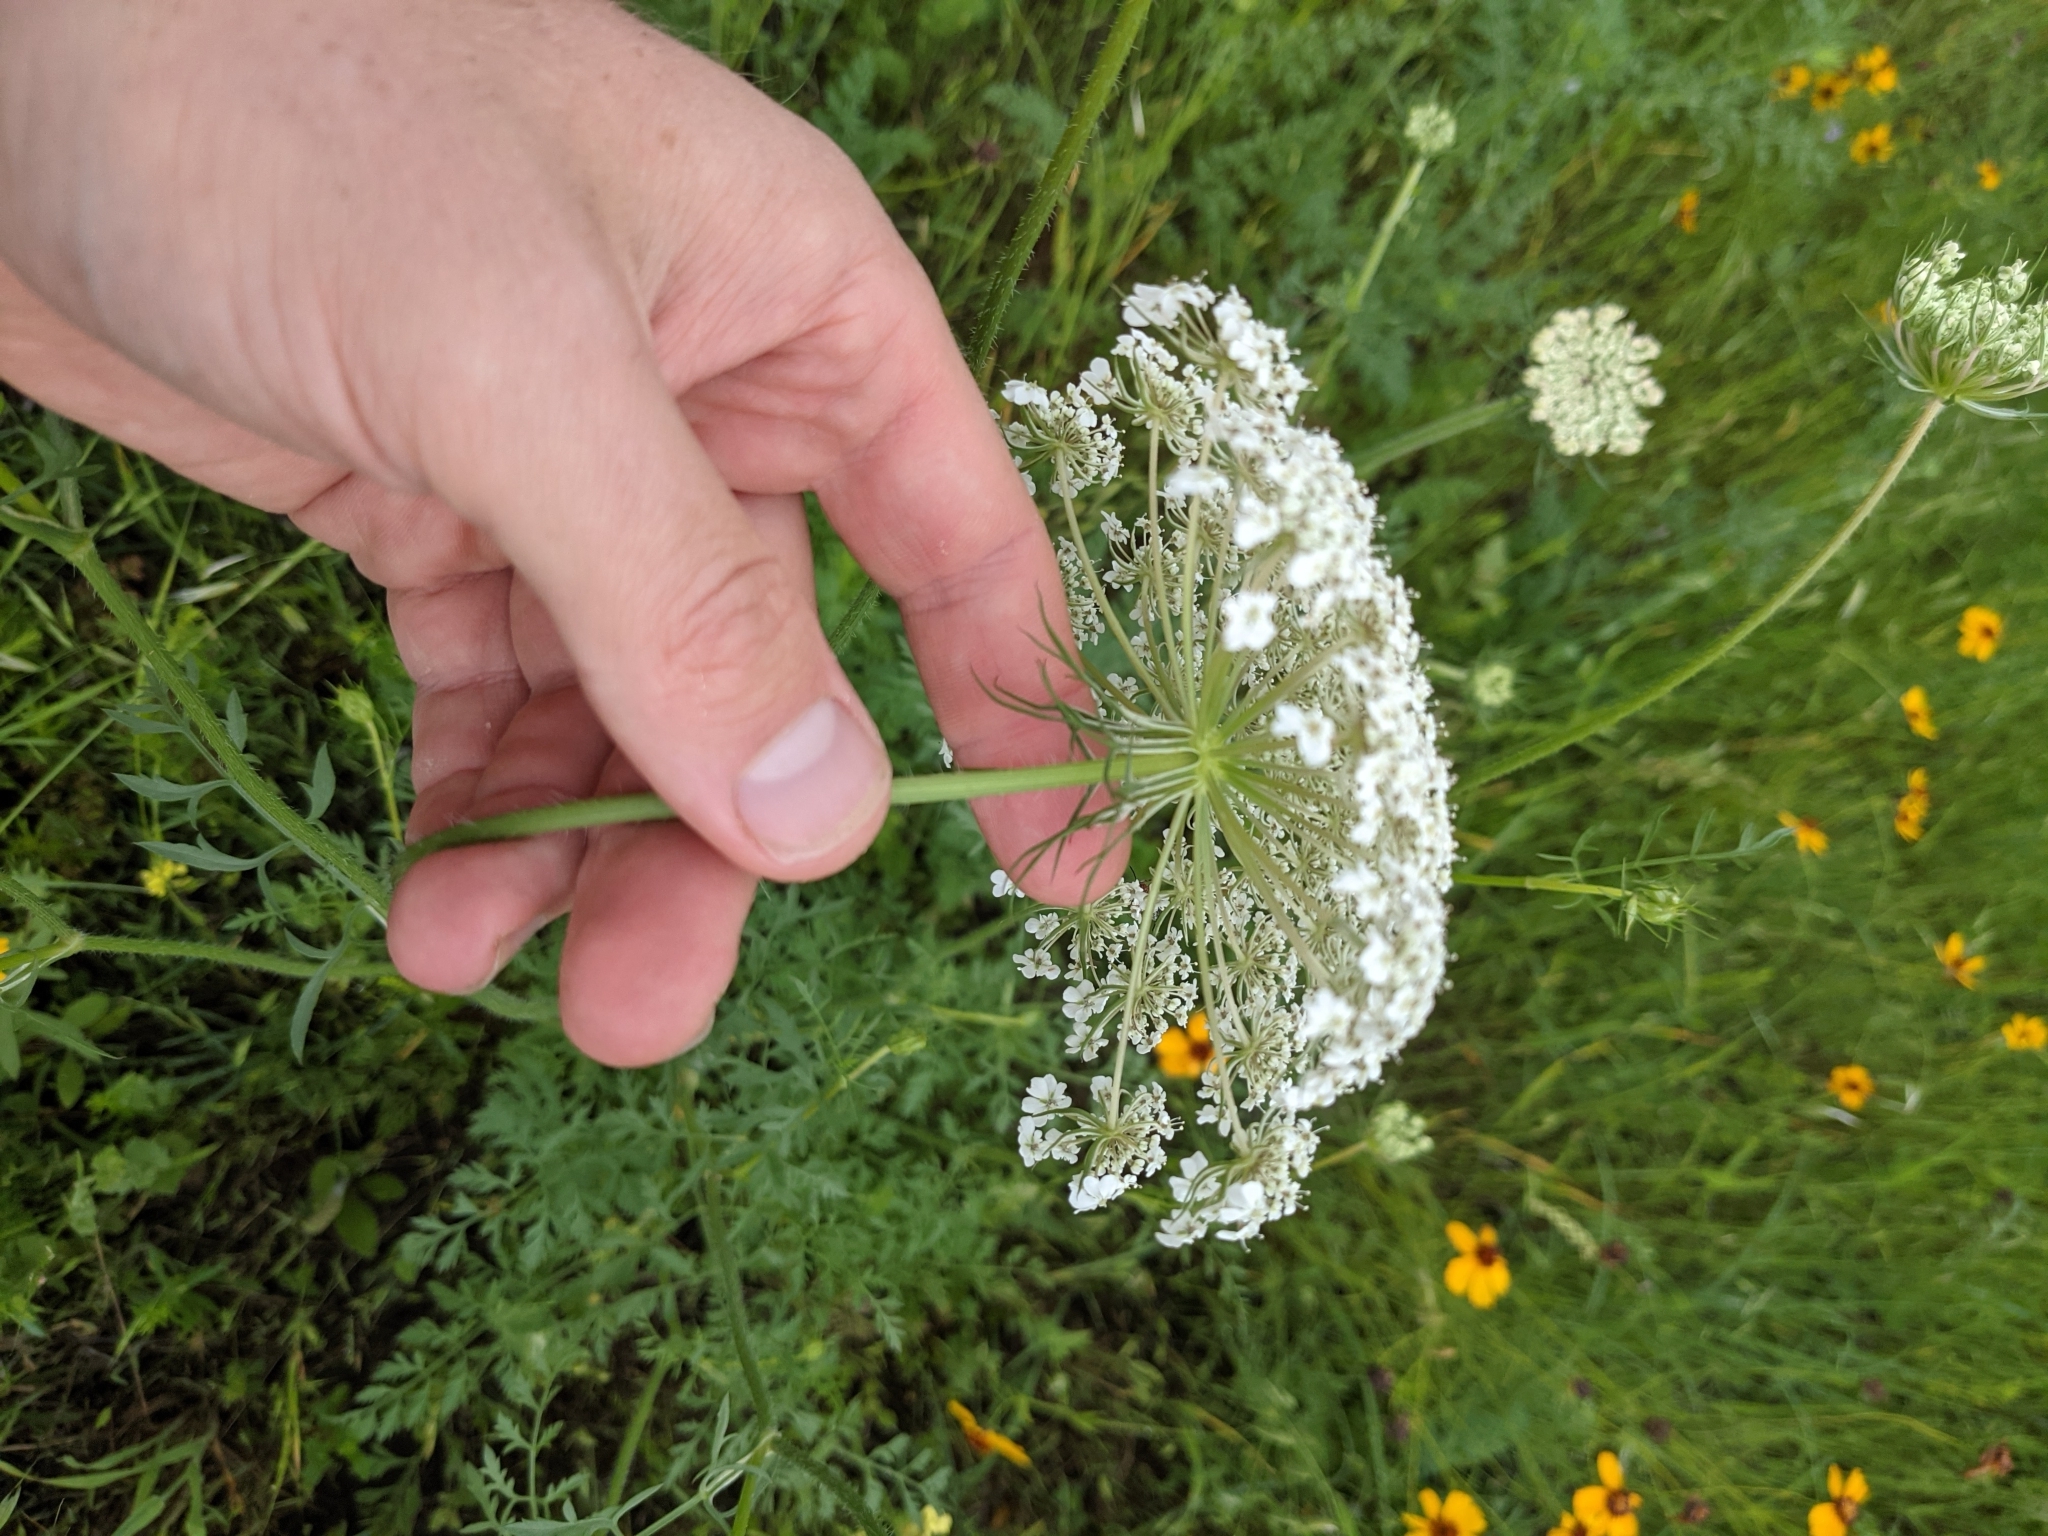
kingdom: Plantae
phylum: Tracheophyta
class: Magnoliopsida
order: Apiales
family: Apiaceae
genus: Daucus
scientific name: Daucus carota
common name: Wild carrot
